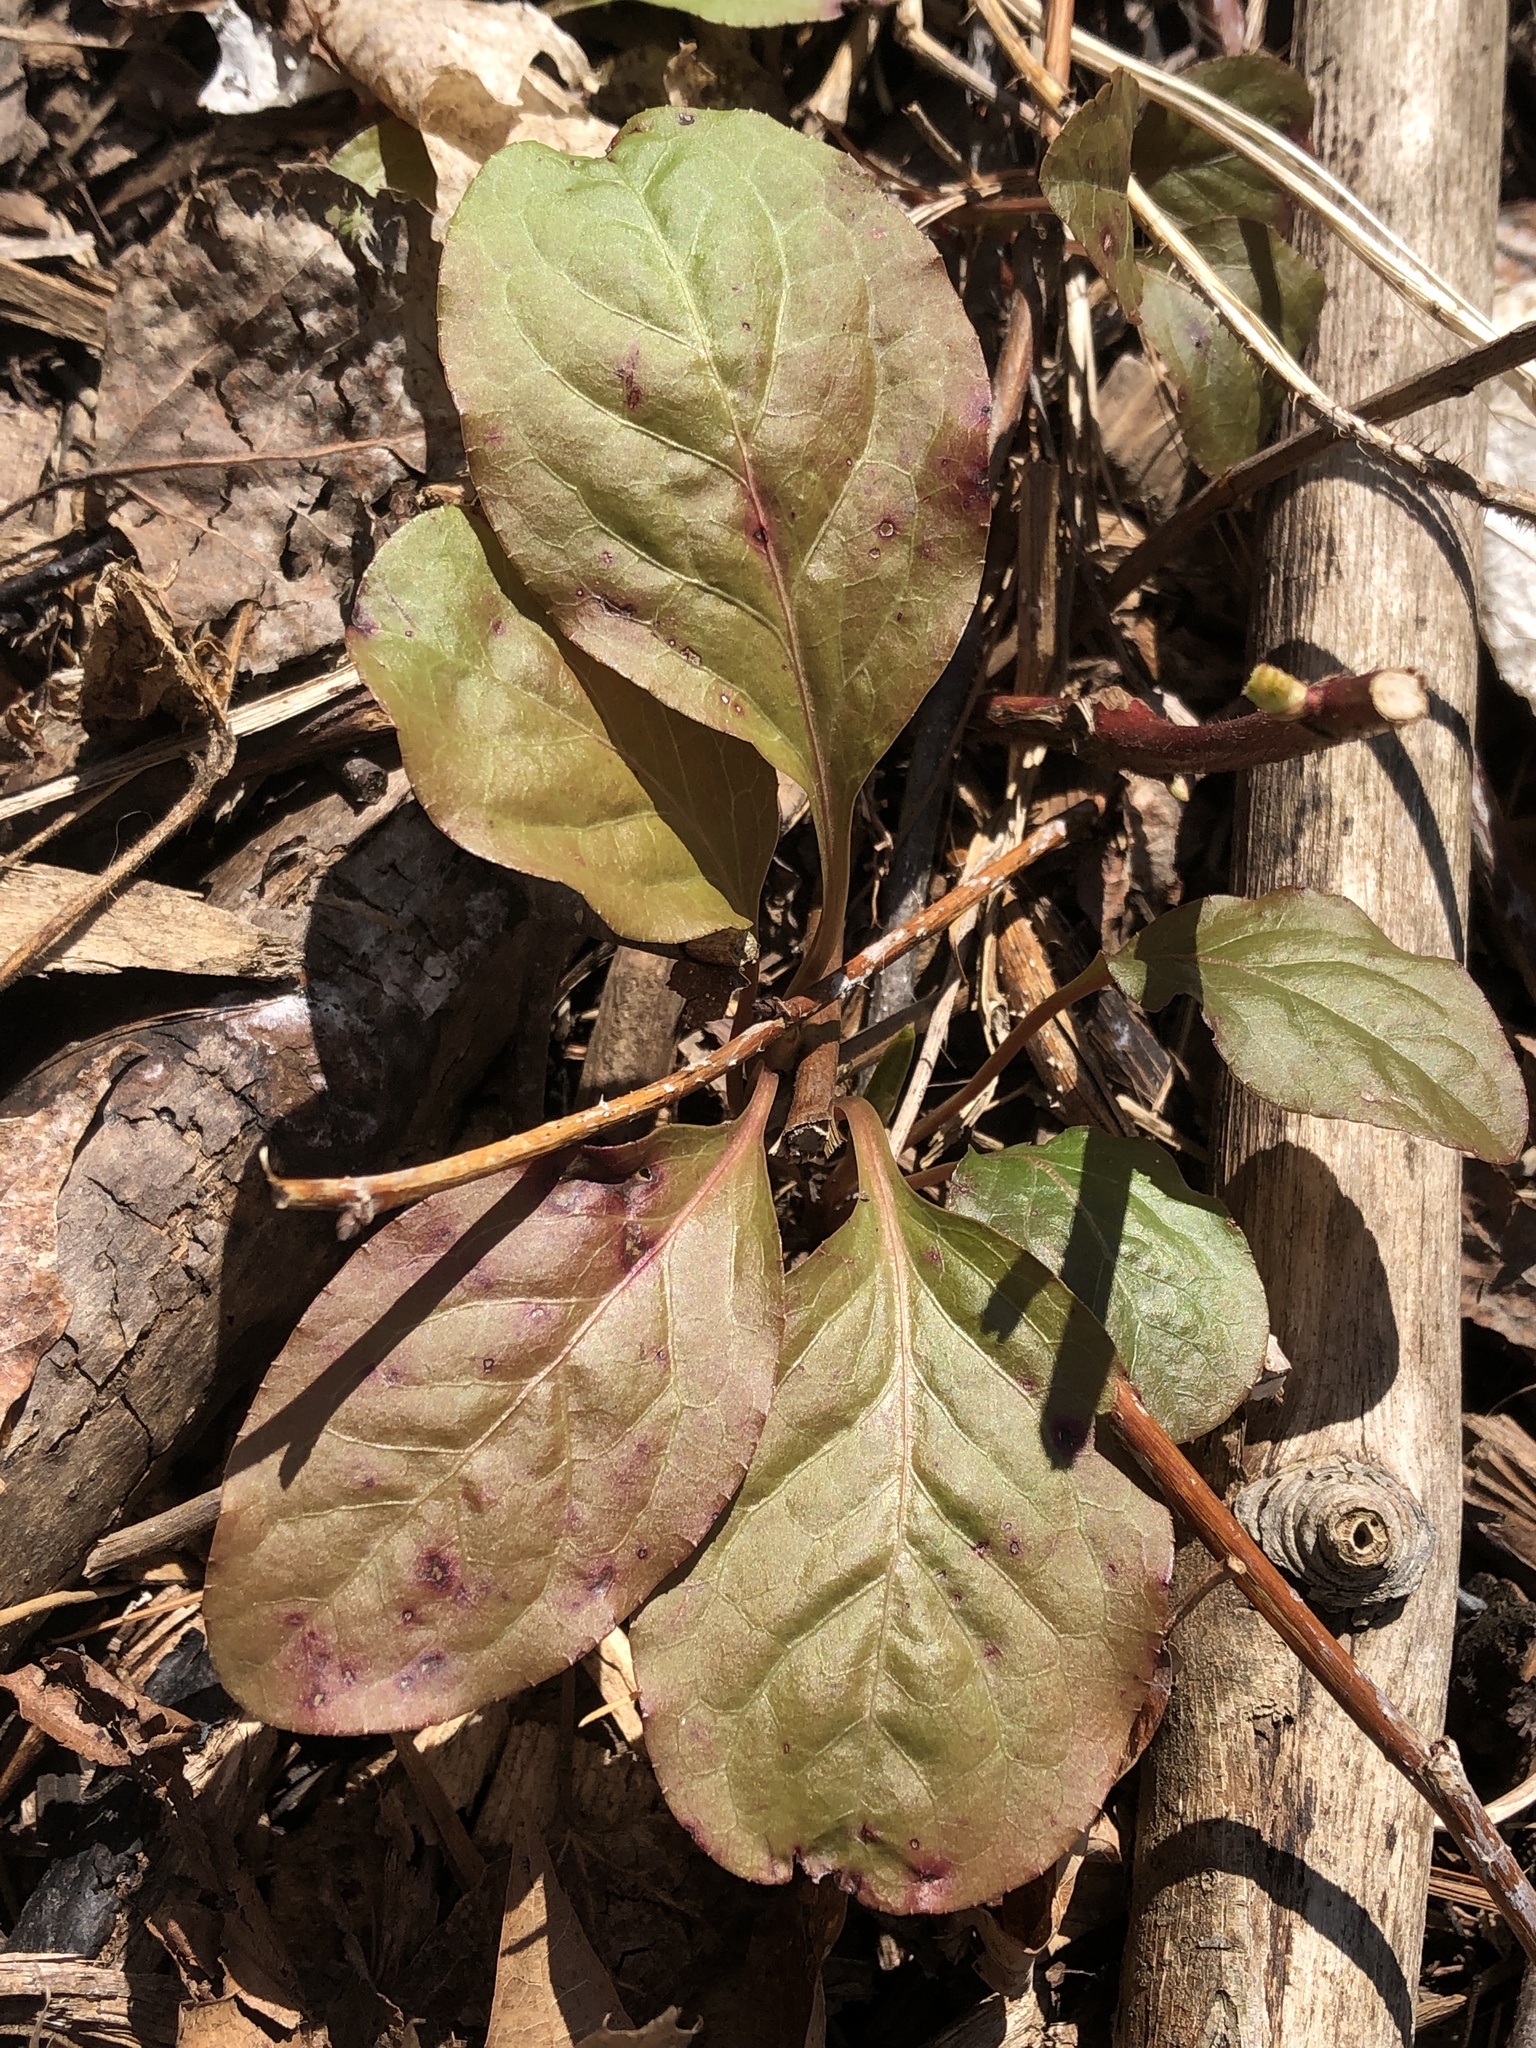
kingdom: Plantae
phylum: Tracheophyta
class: Magnoliopsida
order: Ericales
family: Ericaceae
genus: Pyrola
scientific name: Pyrola elliptica
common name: Shinleaf
